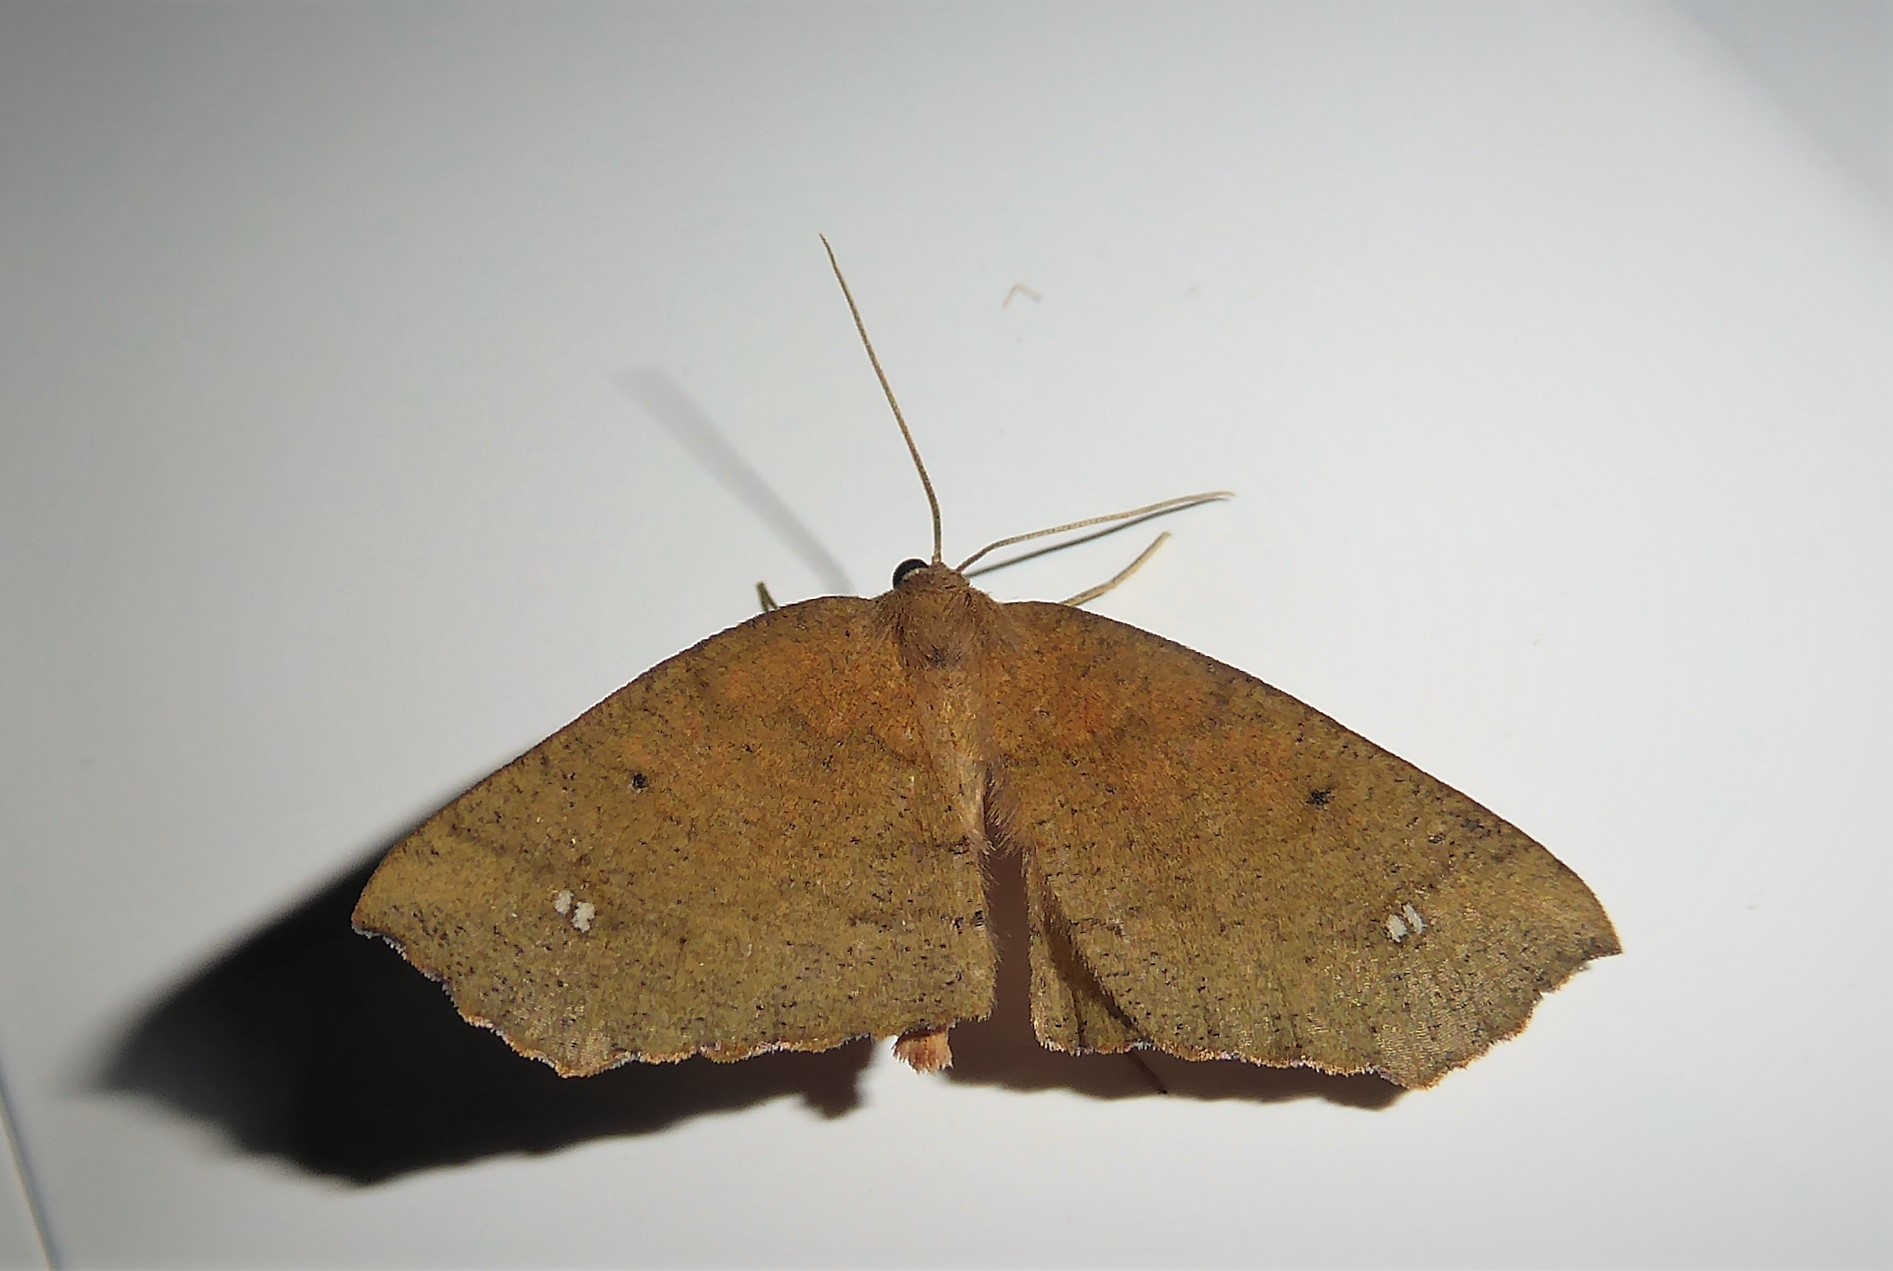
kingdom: Animalia
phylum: Arthropoda
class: Insecta
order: Lepidoptera
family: Geometridae
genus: Xyridacma
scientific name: Xyridacma ustaria
